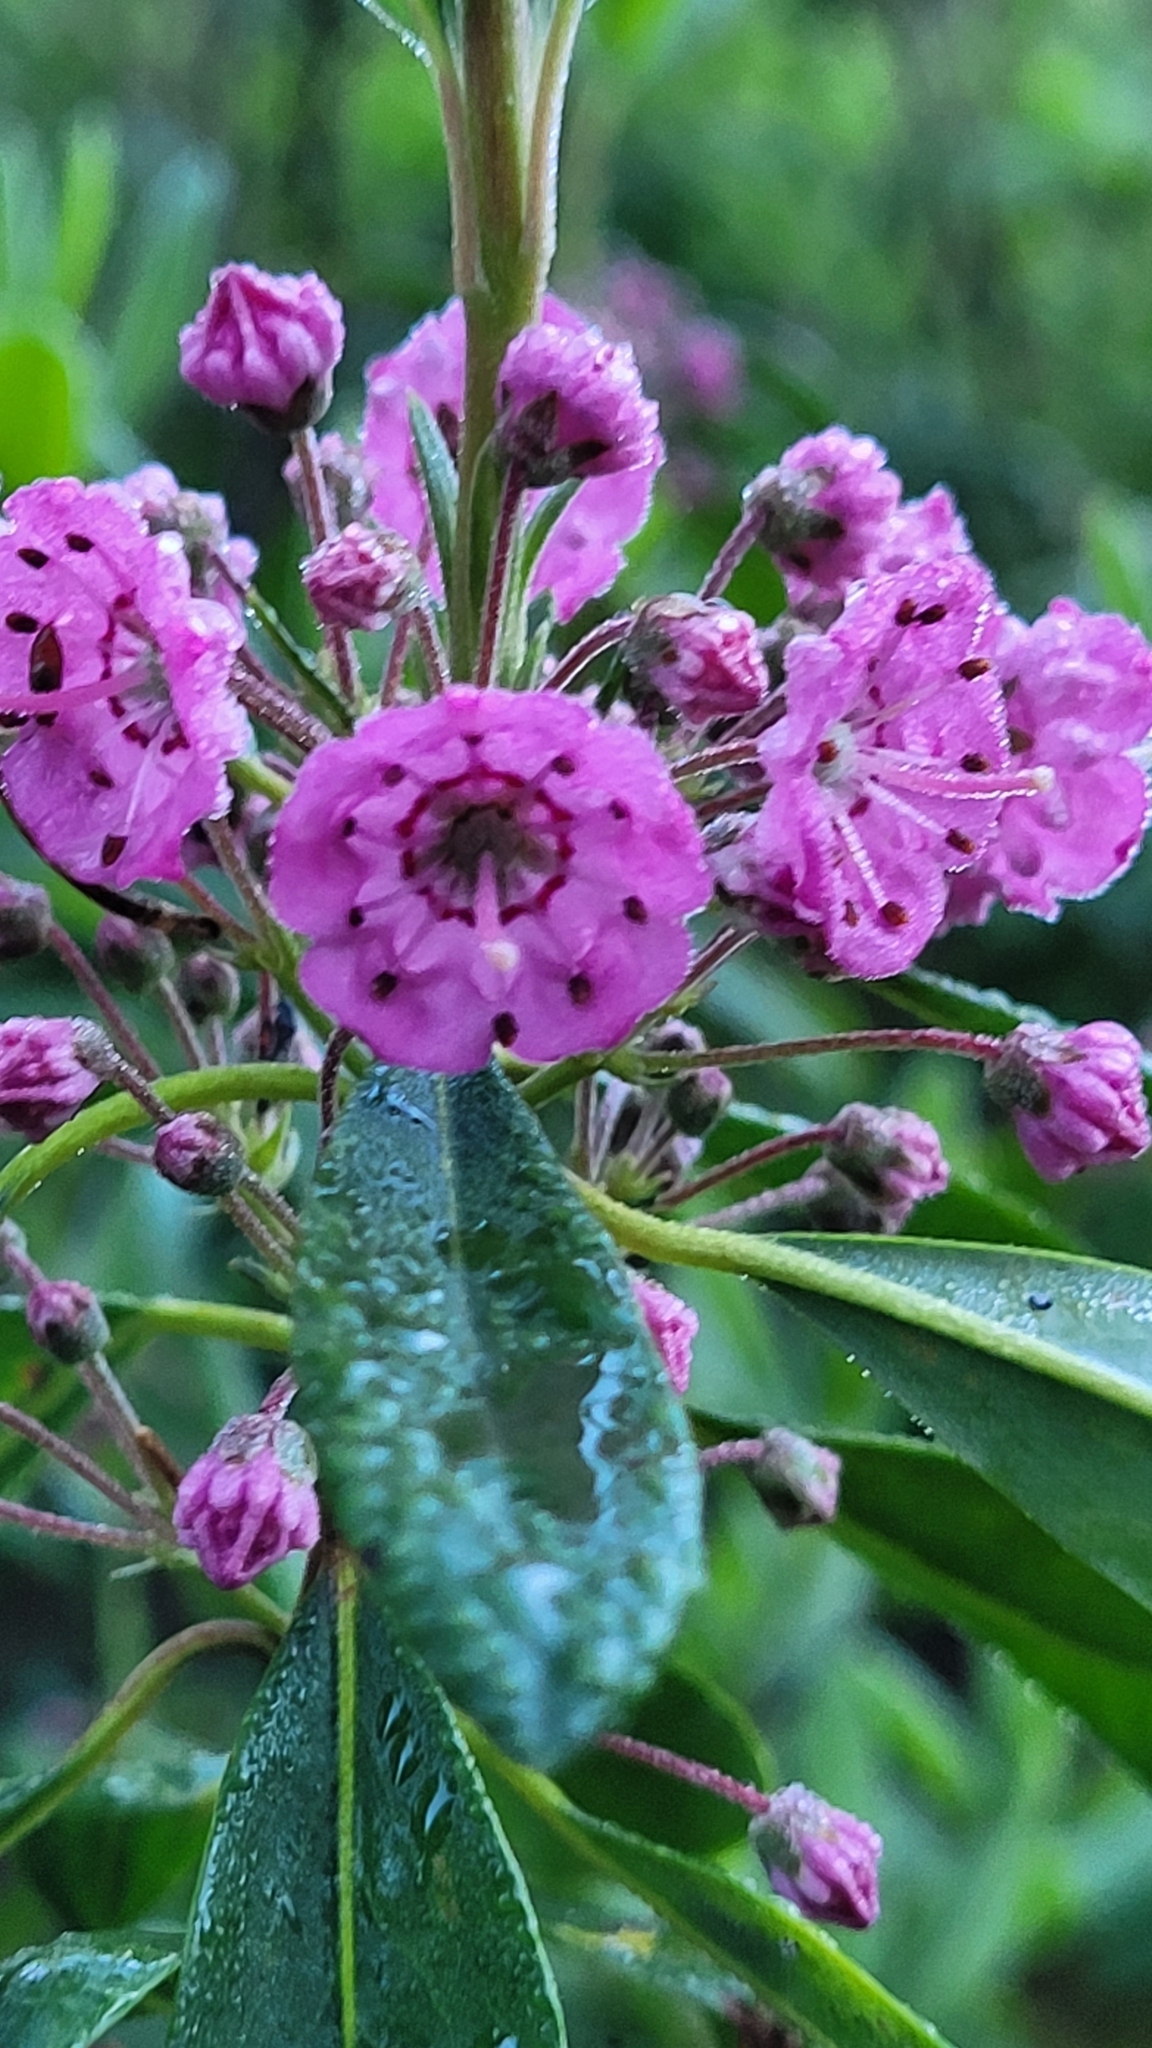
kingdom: Plantae
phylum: Tracheophyta
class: Magnoliopsida
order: Ericales
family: Ericaceae
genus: Kalmia
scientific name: Kalmia angustifolia
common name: Sheep-laurel
